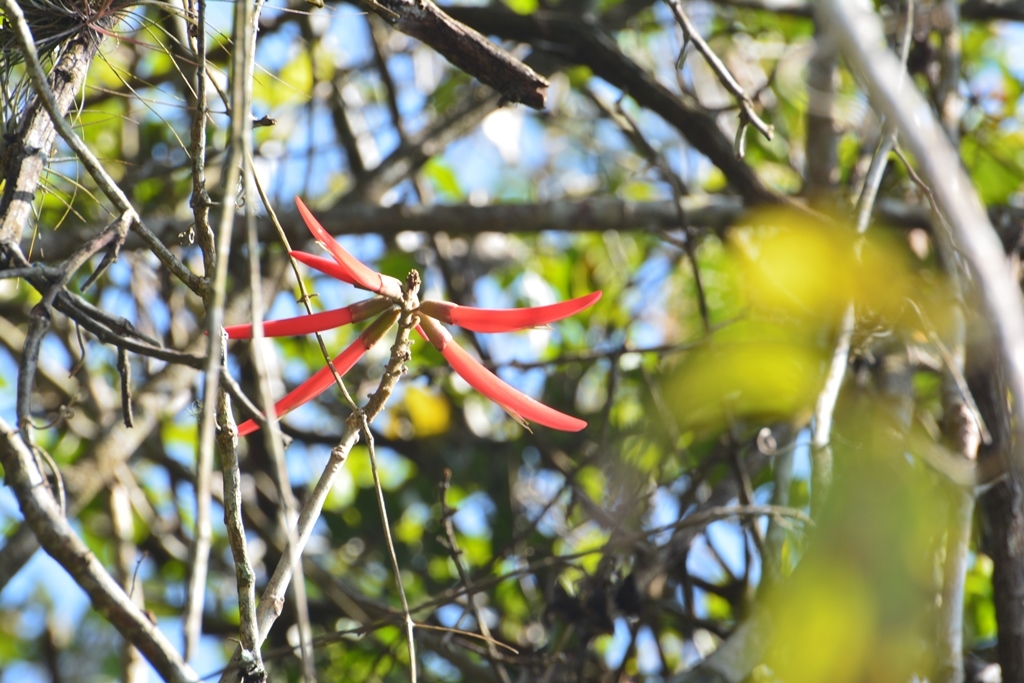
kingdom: Plantae
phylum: Tracheophyta
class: Magnoliopsida
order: Fabales
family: Fabaceae
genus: Erythrina
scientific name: Erythrina berteroana
